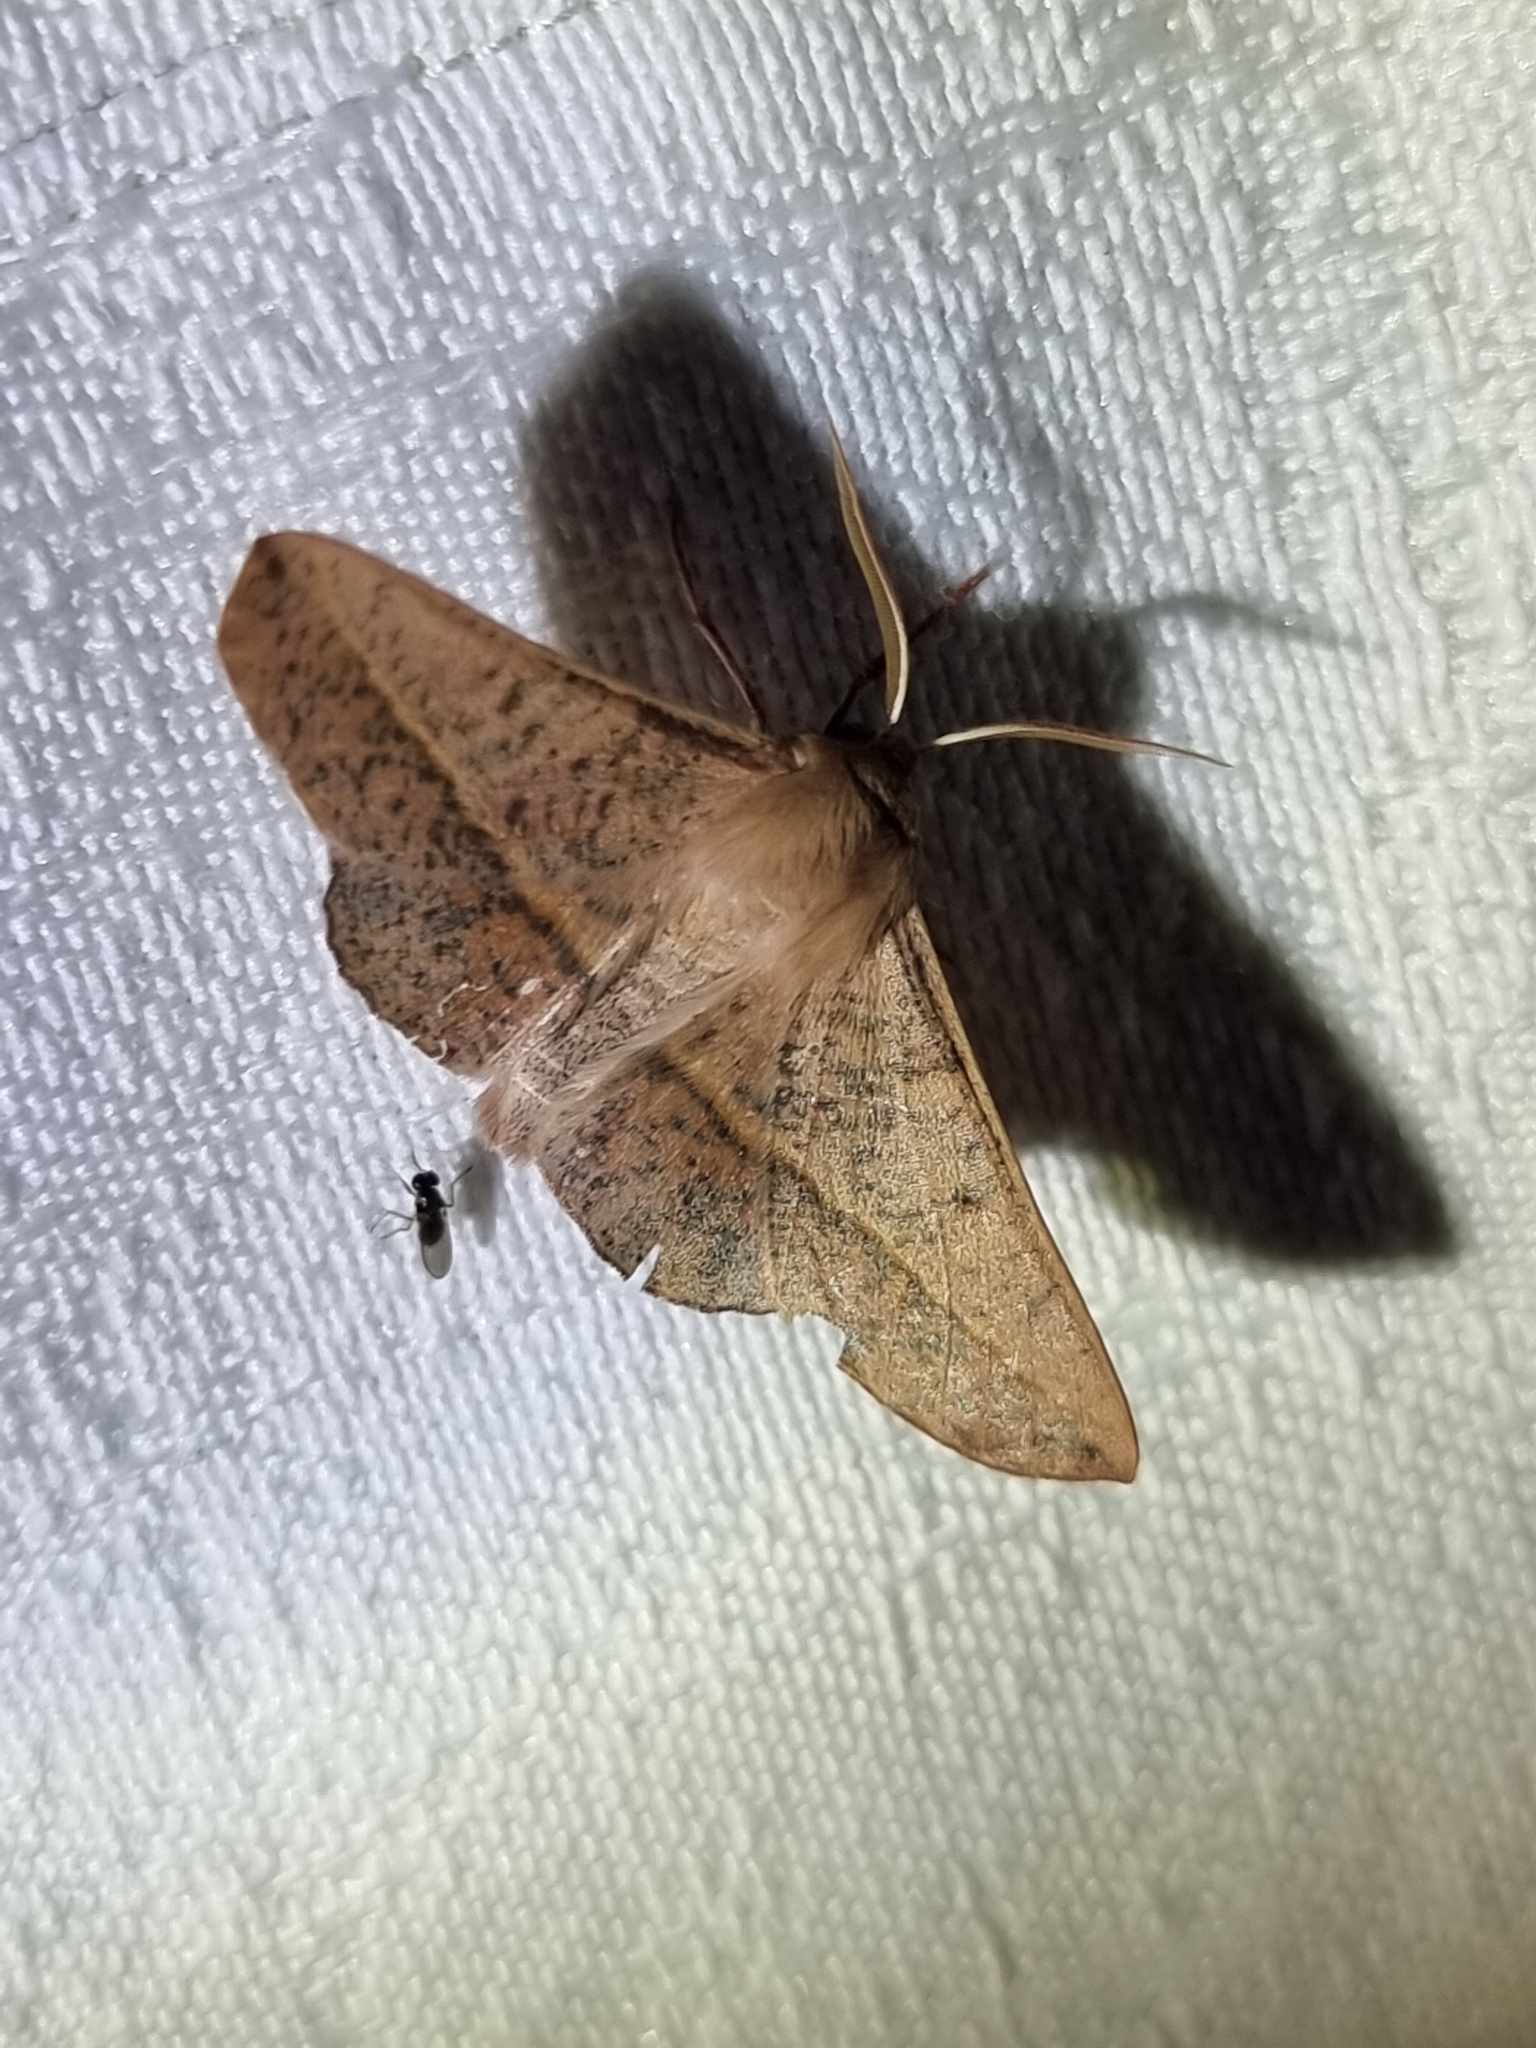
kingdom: Animalia
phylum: Arthropoda
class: Insecta
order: Lepidoptera
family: Geometridae
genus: Antictenia
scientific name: Antictenia punctunculus
